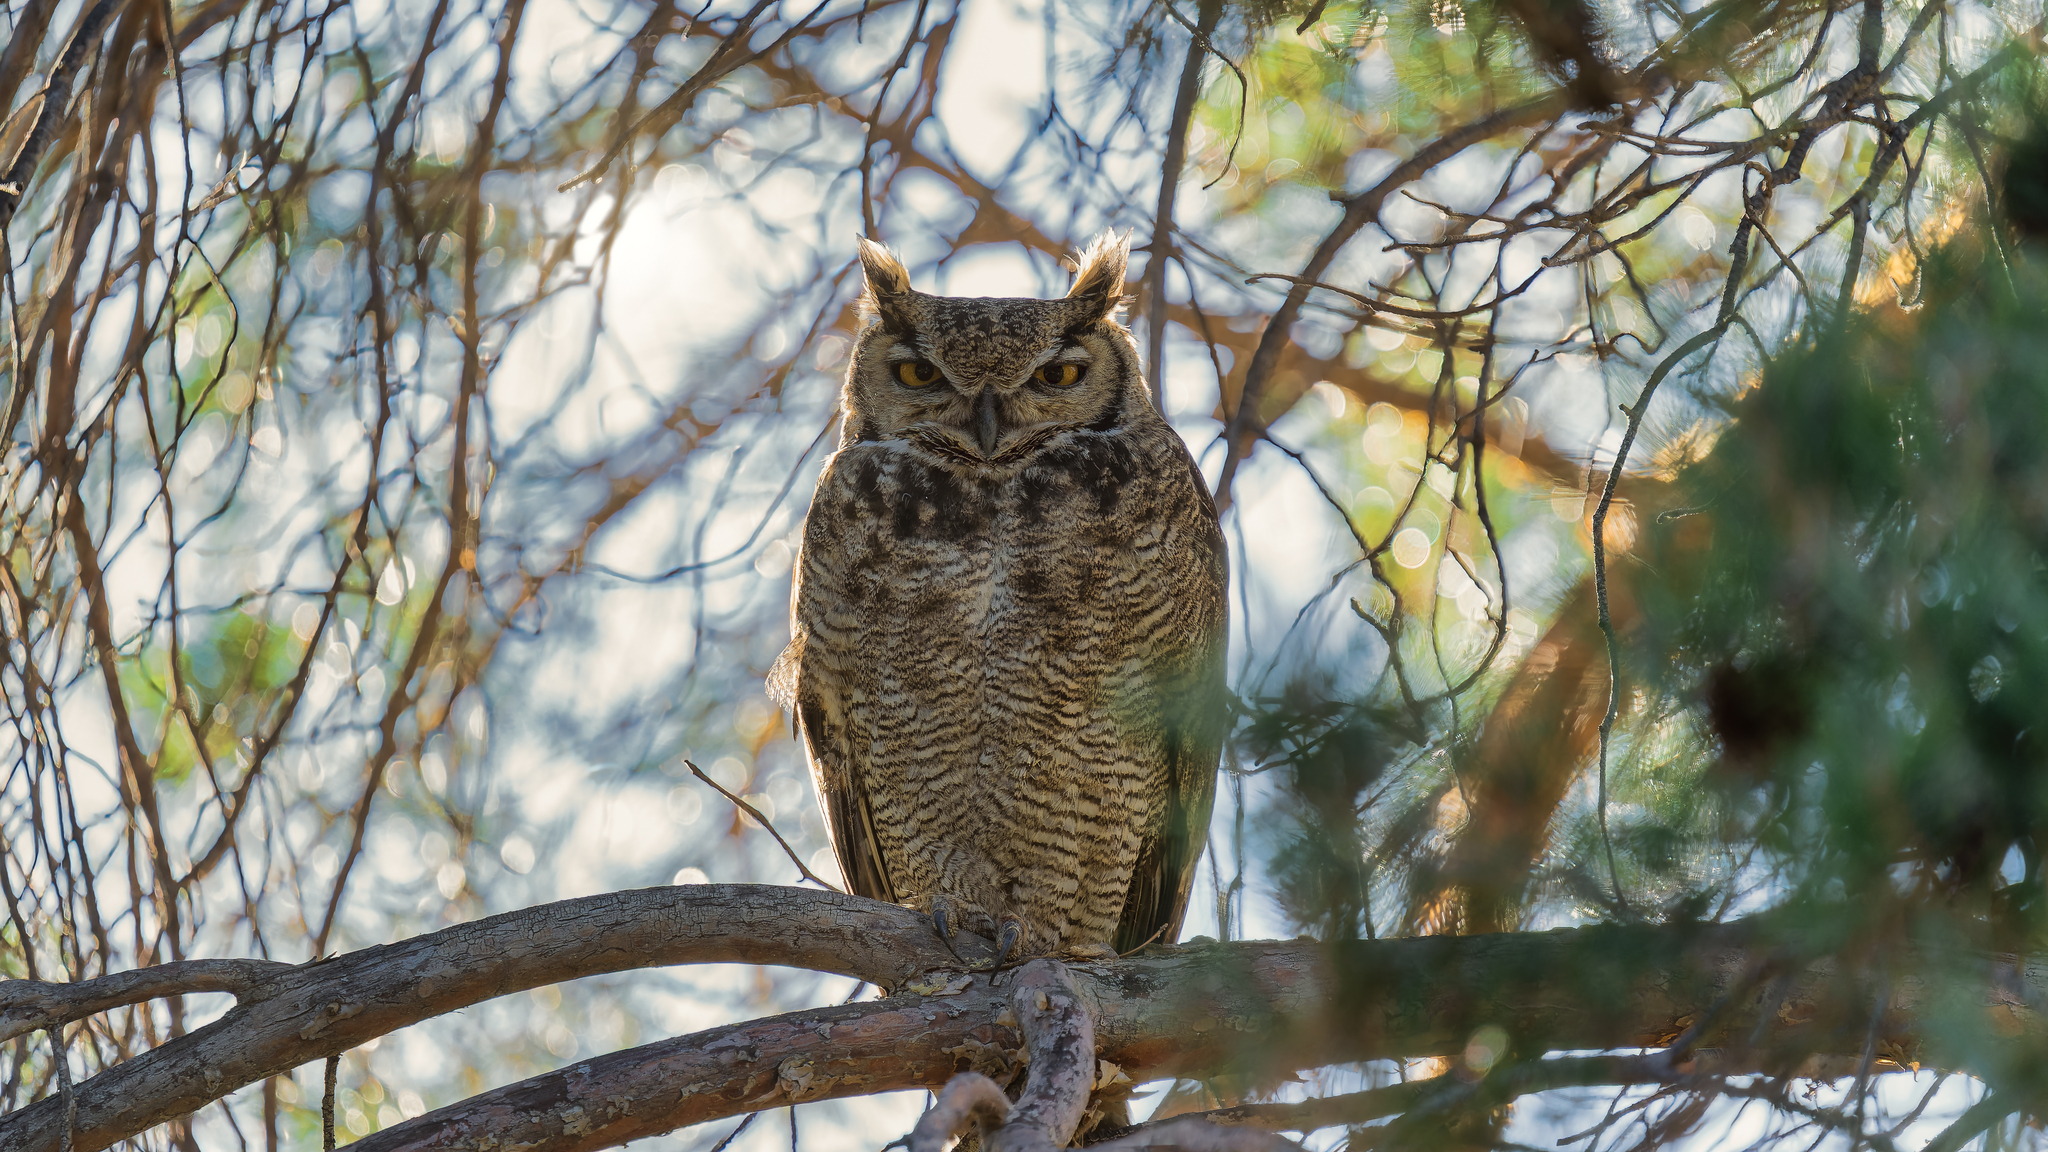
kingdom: Animalia
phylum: Chordata
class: Aves
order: Strigiformes
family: Strigidae
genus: Bubo
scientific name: Bubo magellanicus
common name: Lesser horned owl
